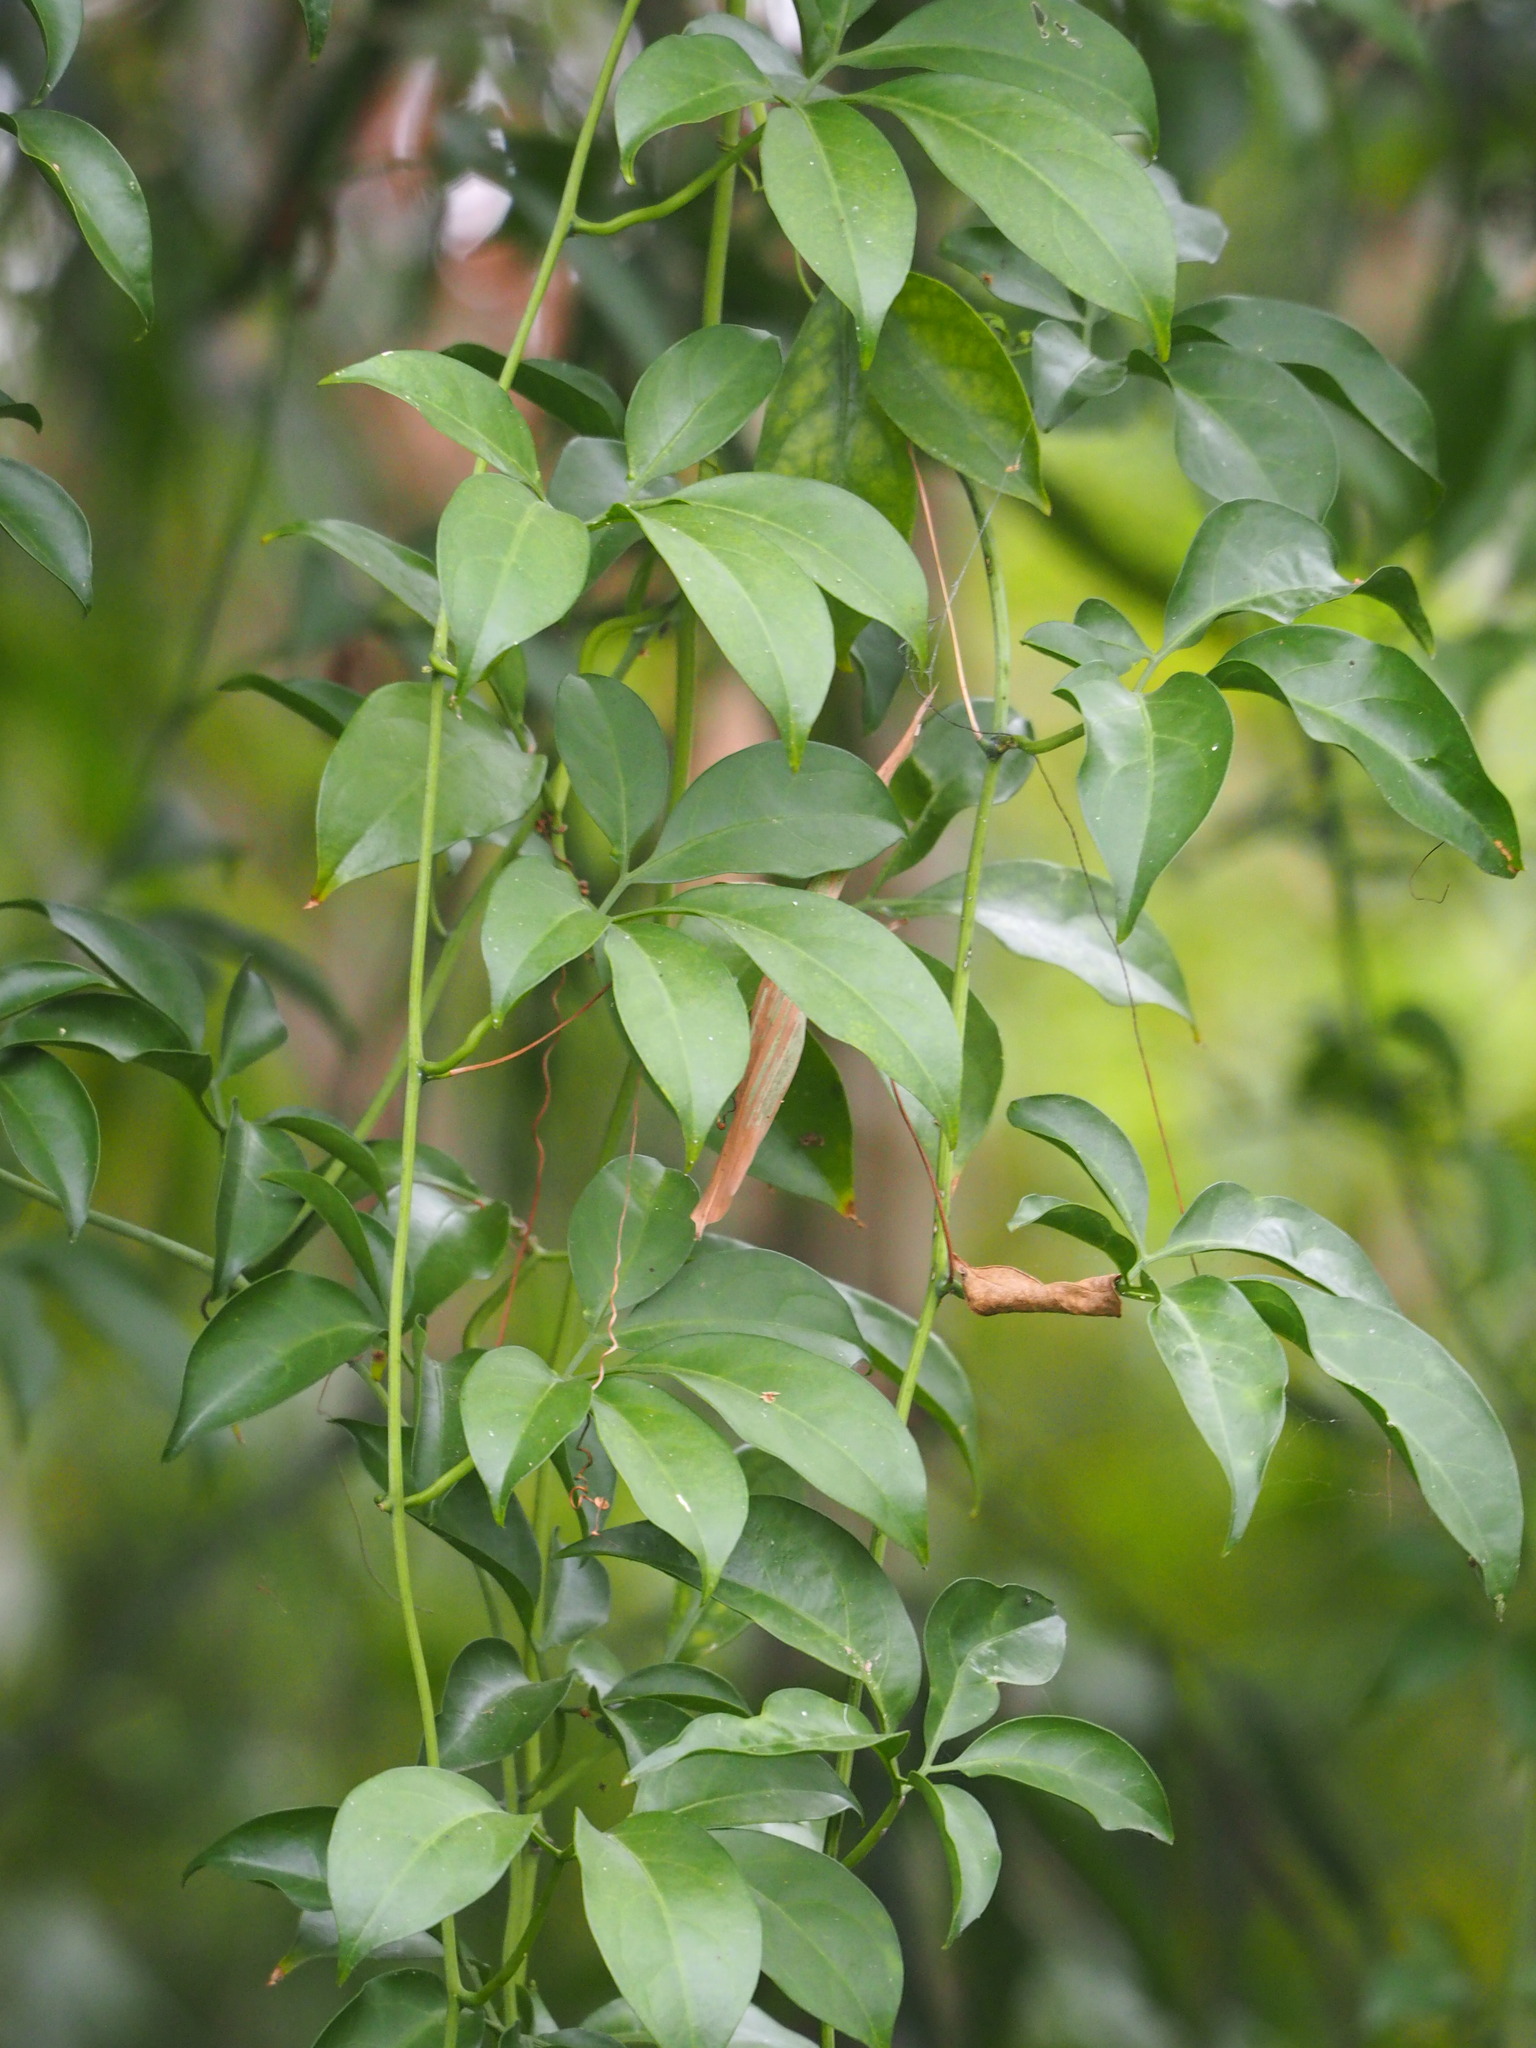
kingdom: Plantae
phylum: Tracheophyta
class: Magnoliopsida
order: Cucurbitales
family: Cucurbitaceae
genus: Neoalsomitra
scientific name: Neoalsomitra clavigera
